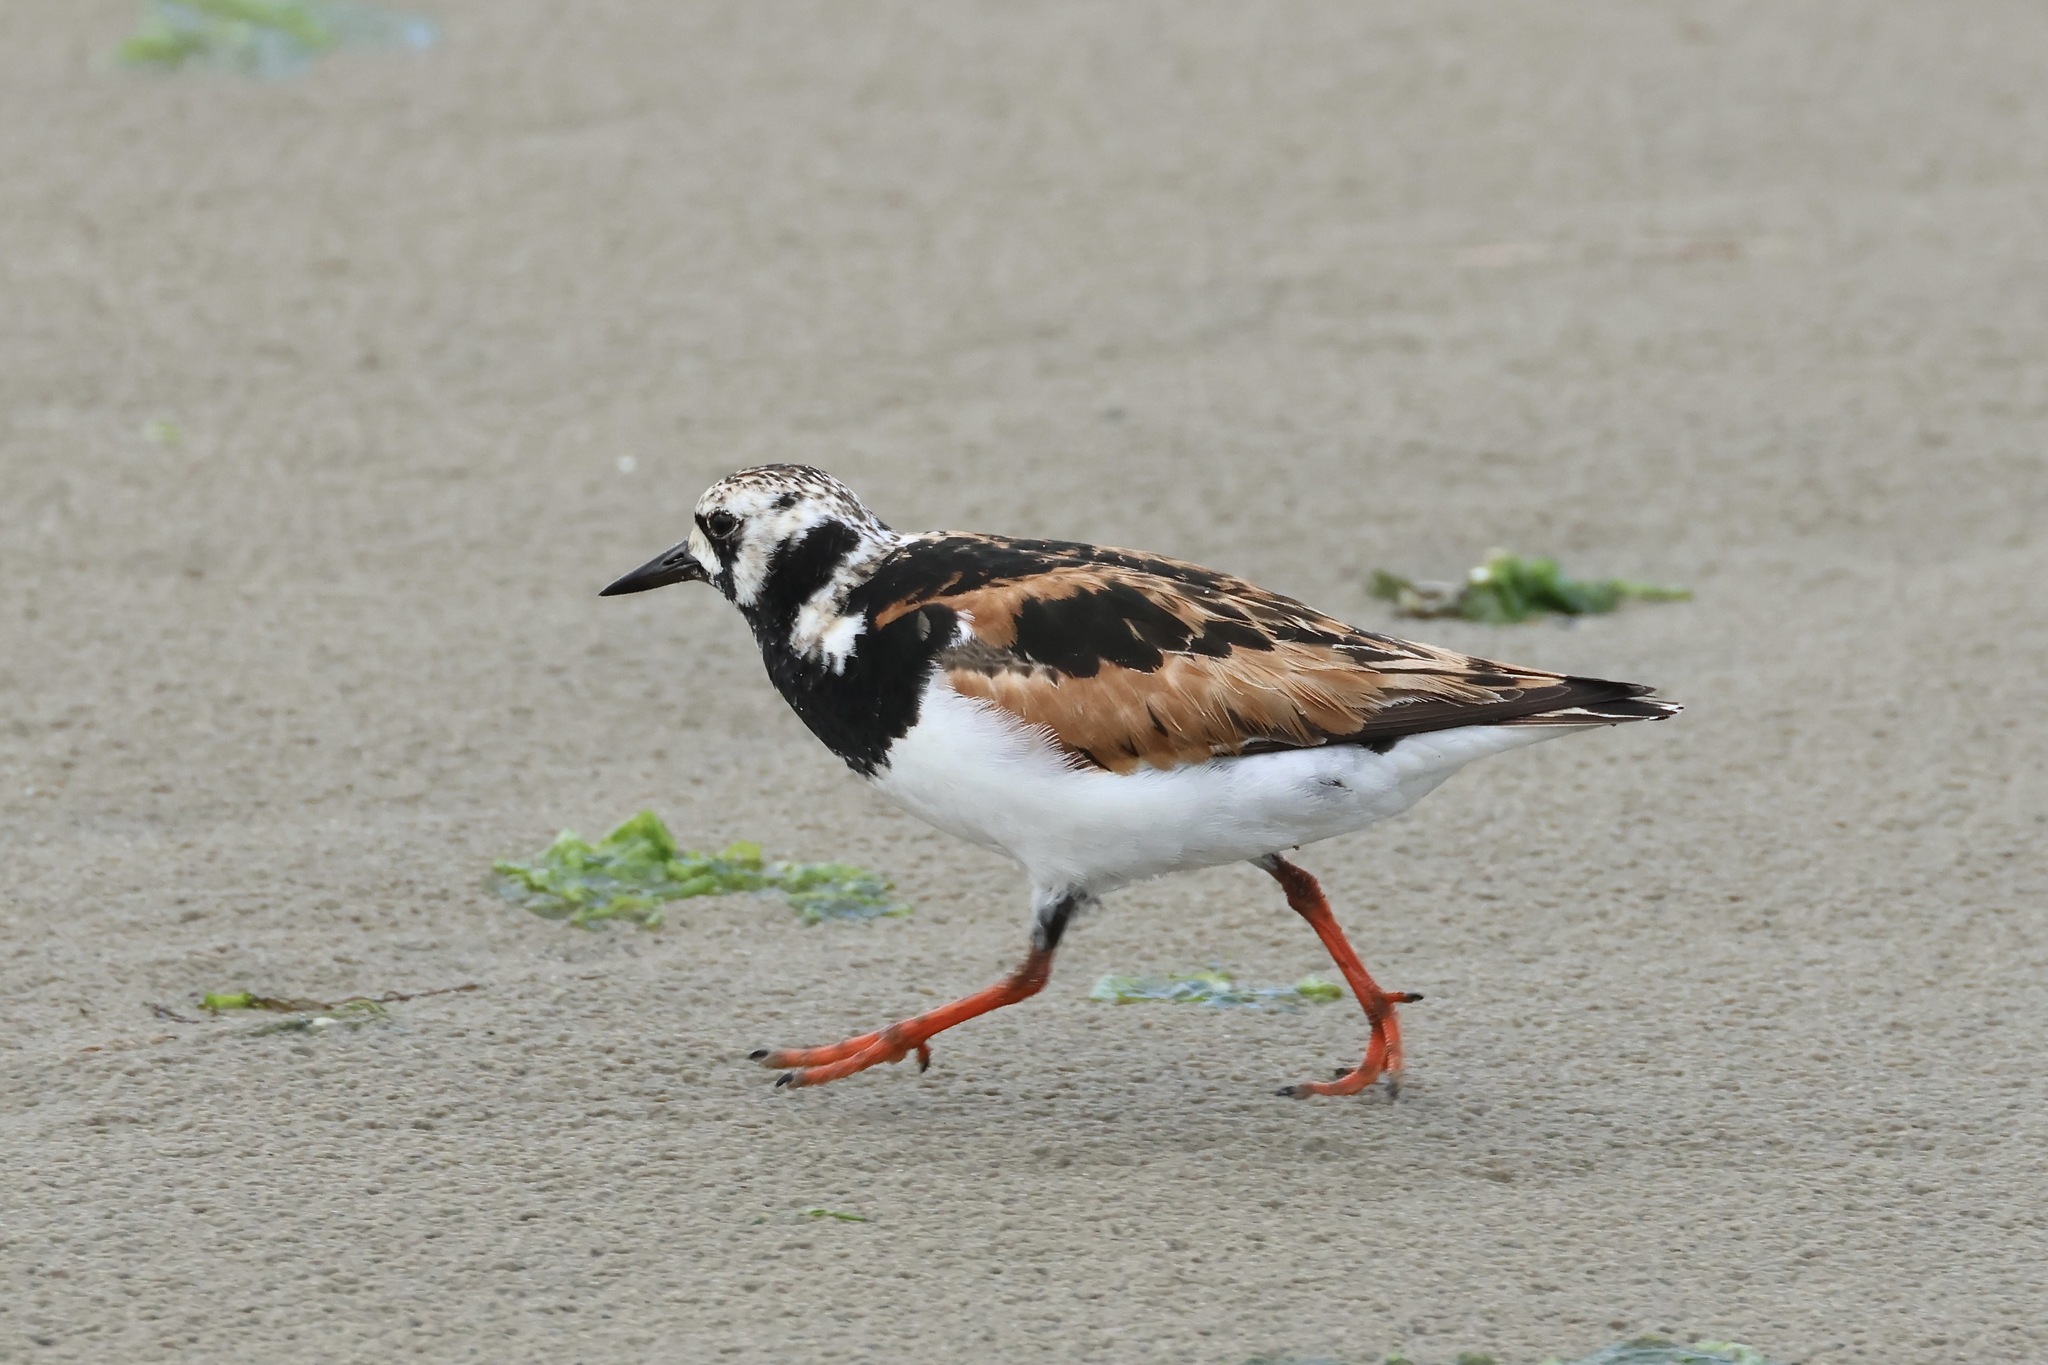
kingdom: Animalia
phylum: Chordata
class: Aves
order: Charadriiformes
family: Scolopacidae
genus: Arenaria
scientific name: Arenaria interpres
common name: Ruddy turnstone
